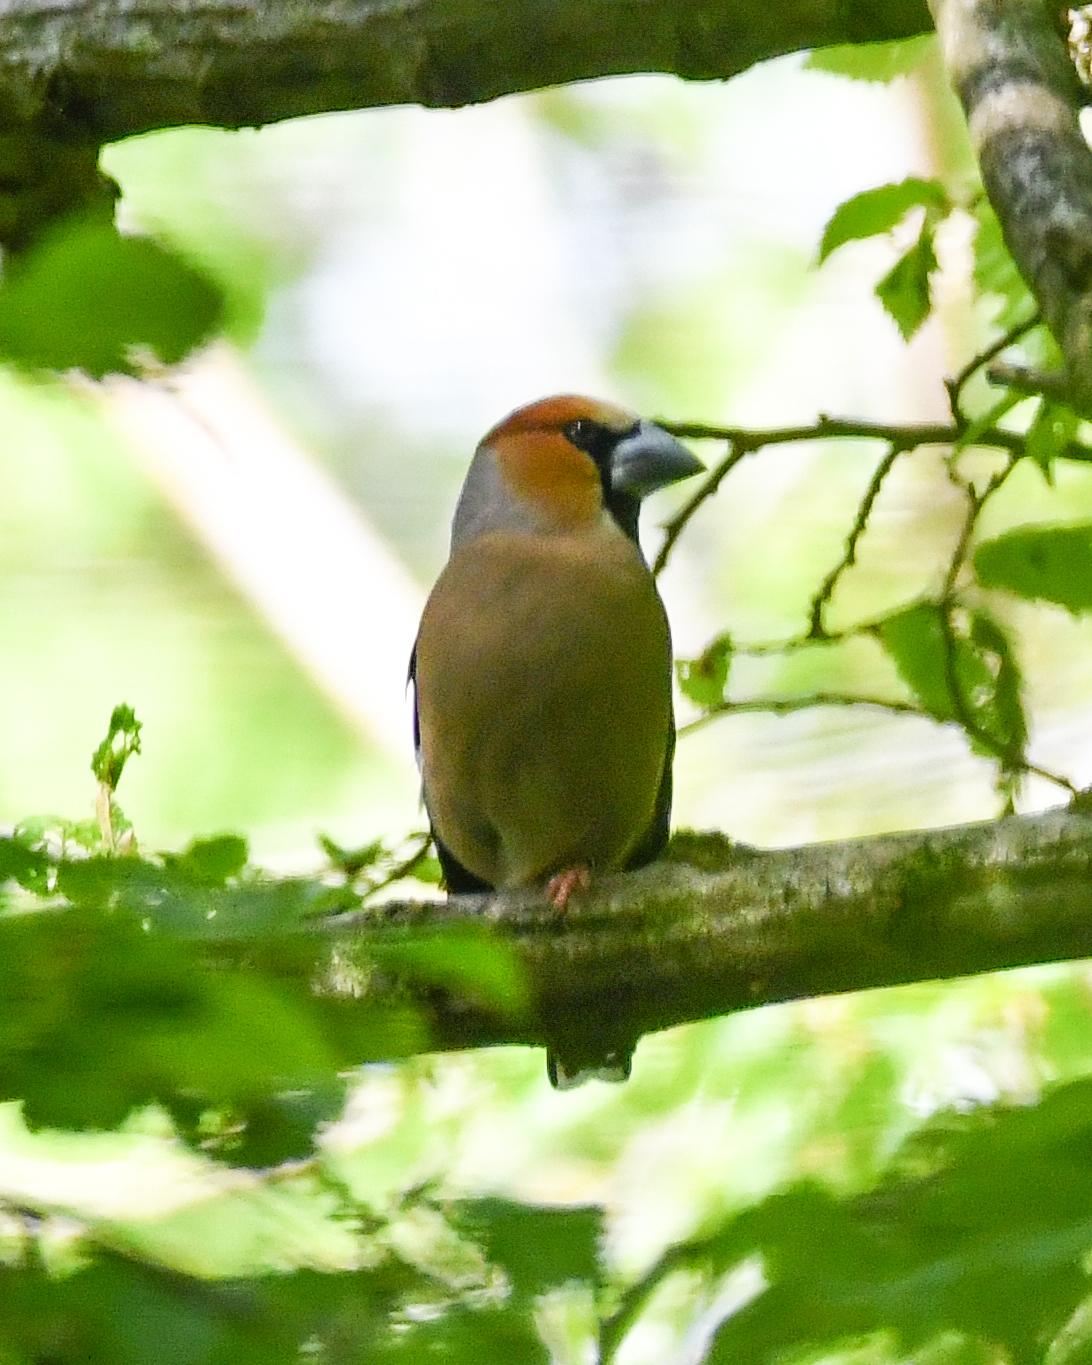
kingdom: Animalia
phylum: Chordata
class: Aves
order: Passeriformes
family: Fringillidae
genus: Coccothraustes
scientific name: Coccothraustes coccothraustes
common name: Hawfinch
